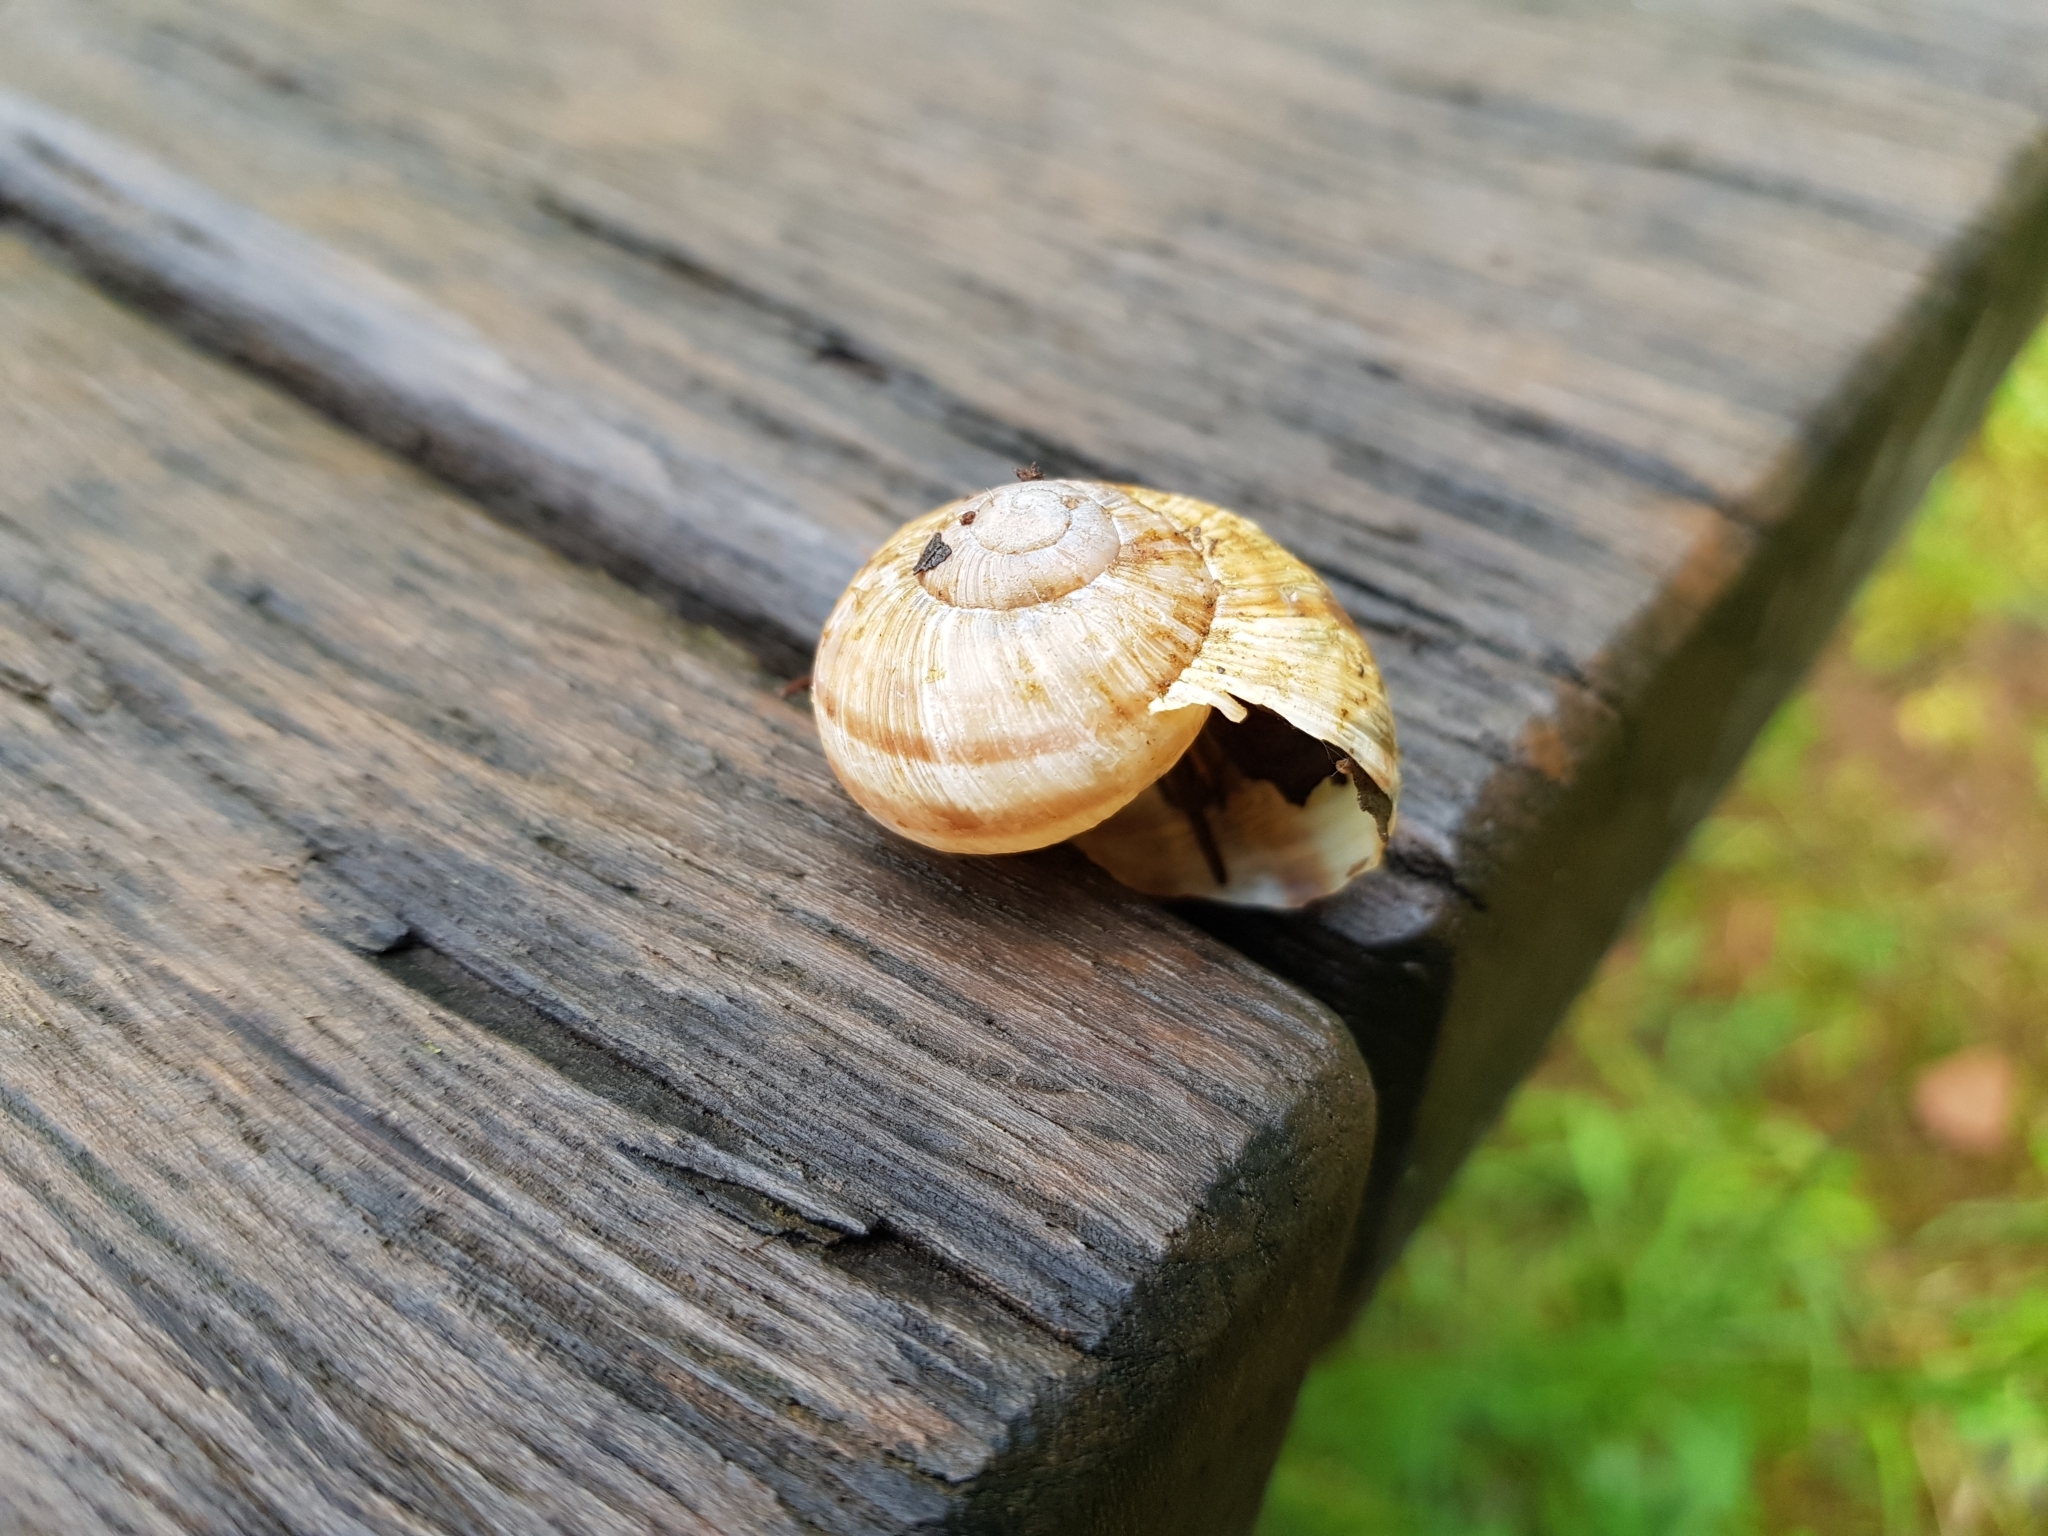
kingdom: Animalia
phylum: Mollusca
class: Gastropoda
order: Stylommatophora
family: Helicidae
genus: Helix
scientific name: Helix pomatia
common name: Roman snail
